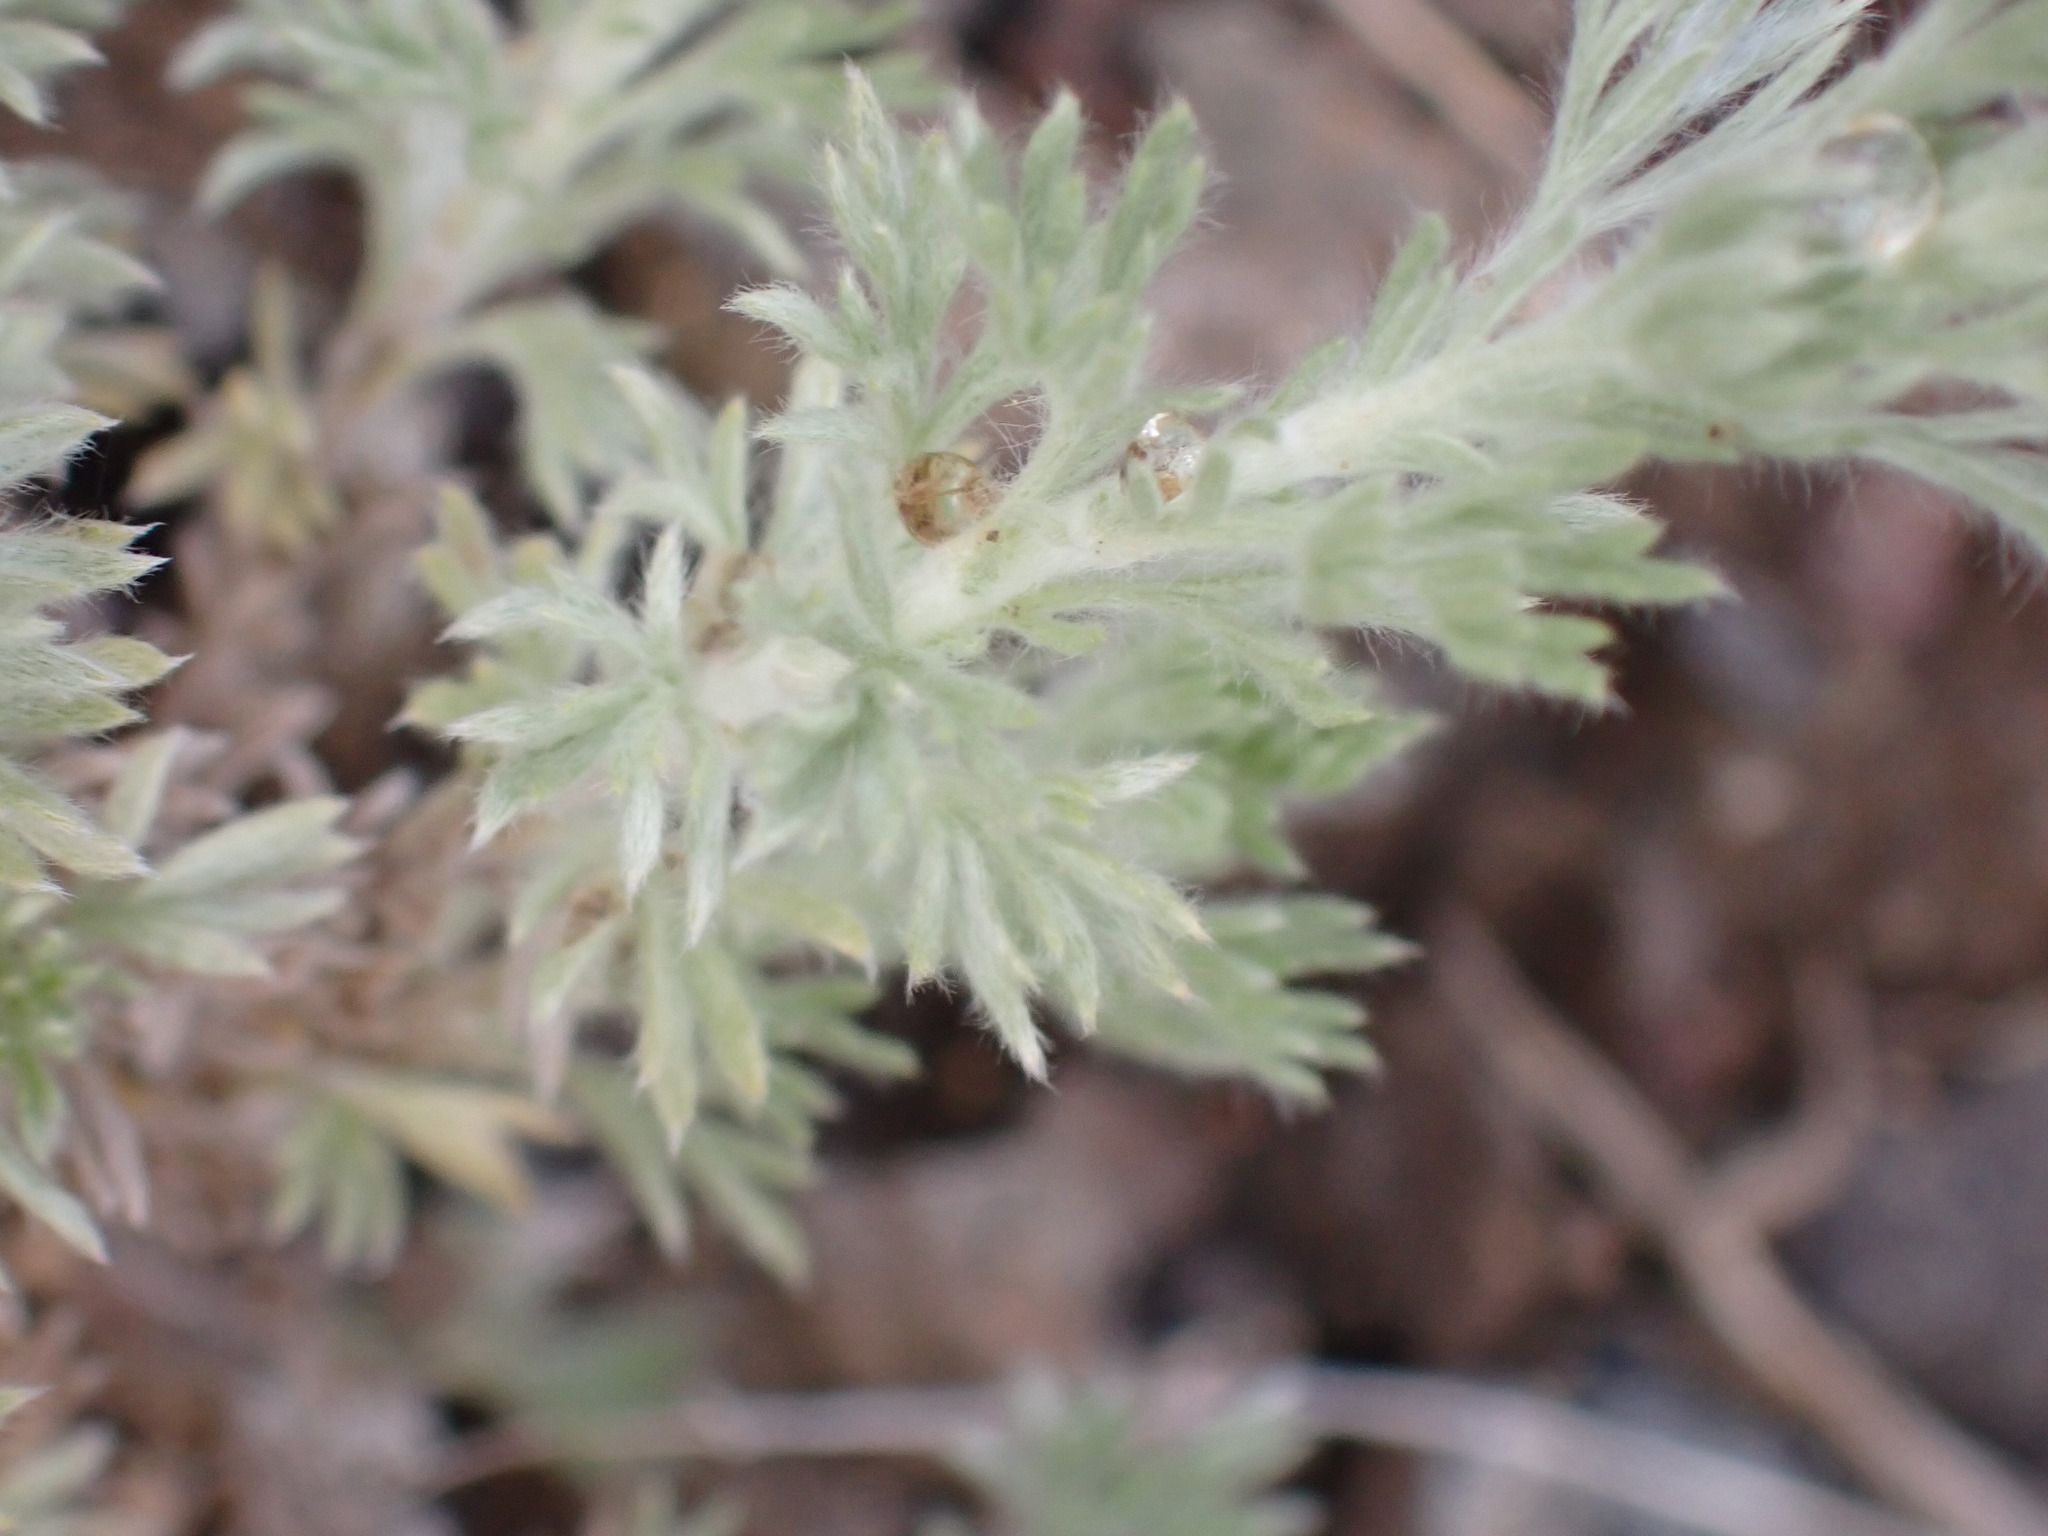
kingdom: Plantae
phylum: Tracheophyta
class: Magnoliopsida
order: Asterales
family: Asteraceae
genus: Artemisia
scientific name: Artemisia frigida
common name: Prairie sagewort
